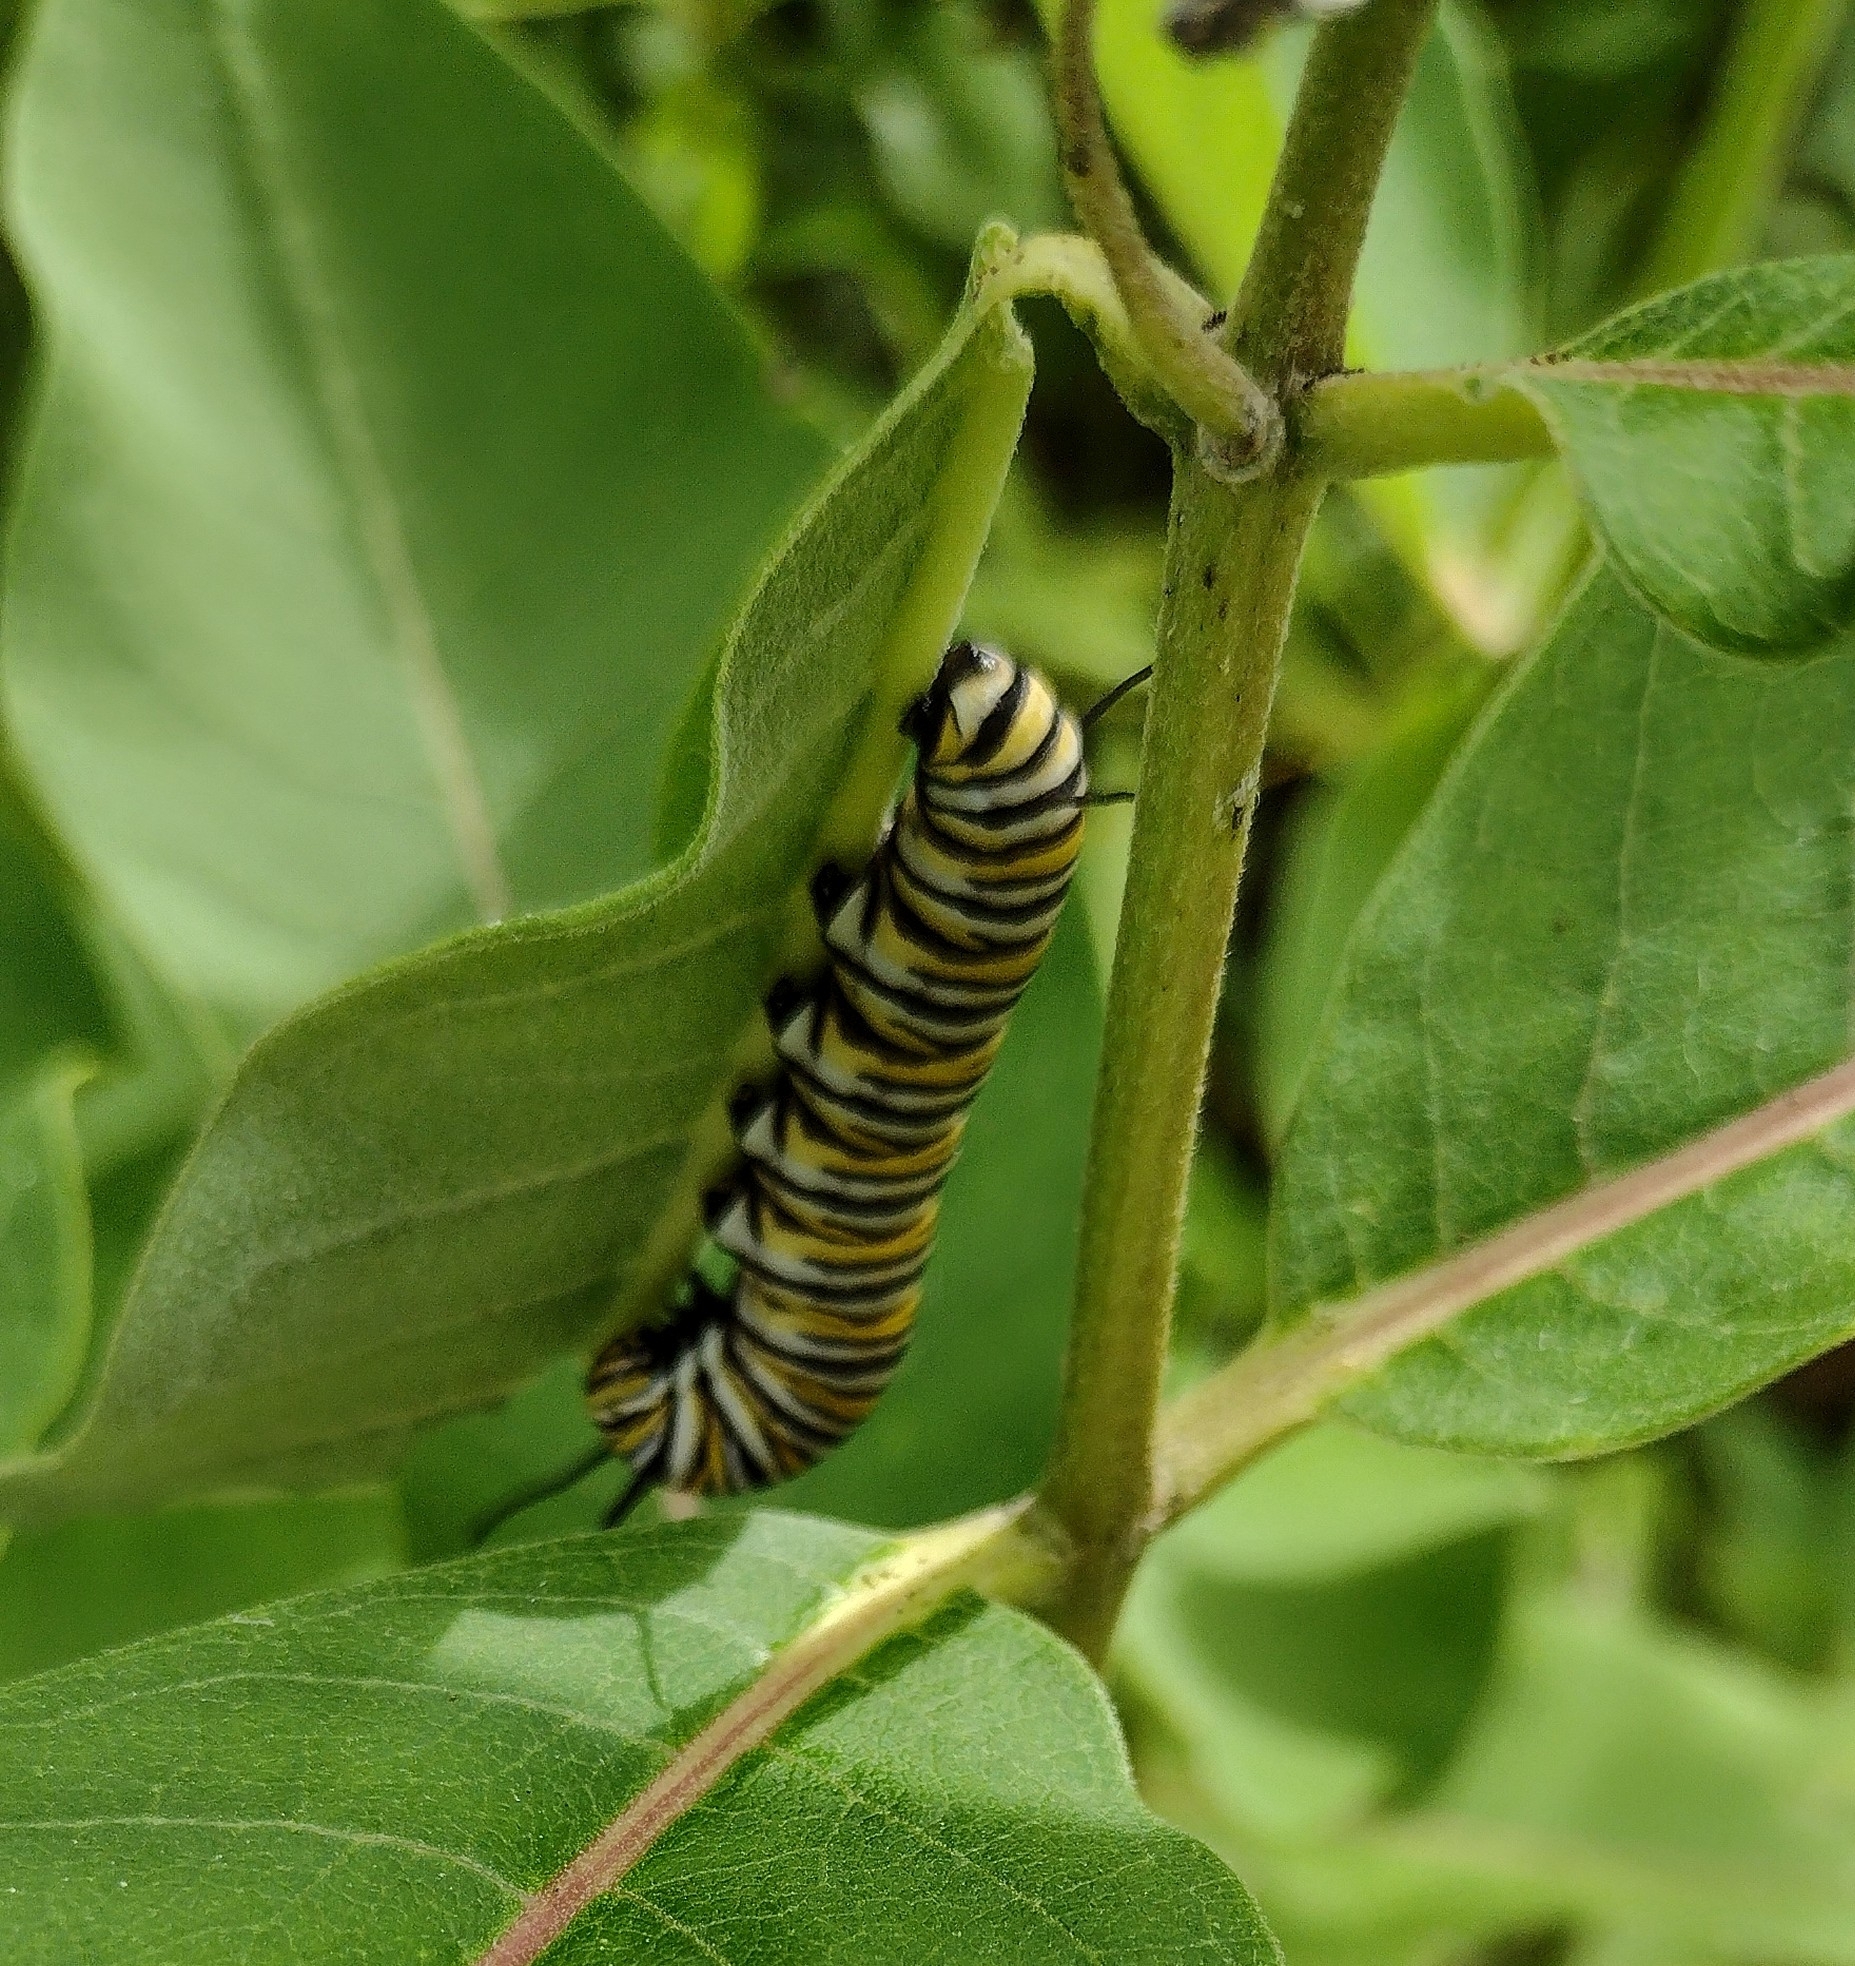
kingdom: Animalia
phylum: Arthropoda
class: Insecta
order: Lepidoptera
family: Nymphalidae
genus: Danaus
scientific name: Danaus plexippus
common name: Monarch
